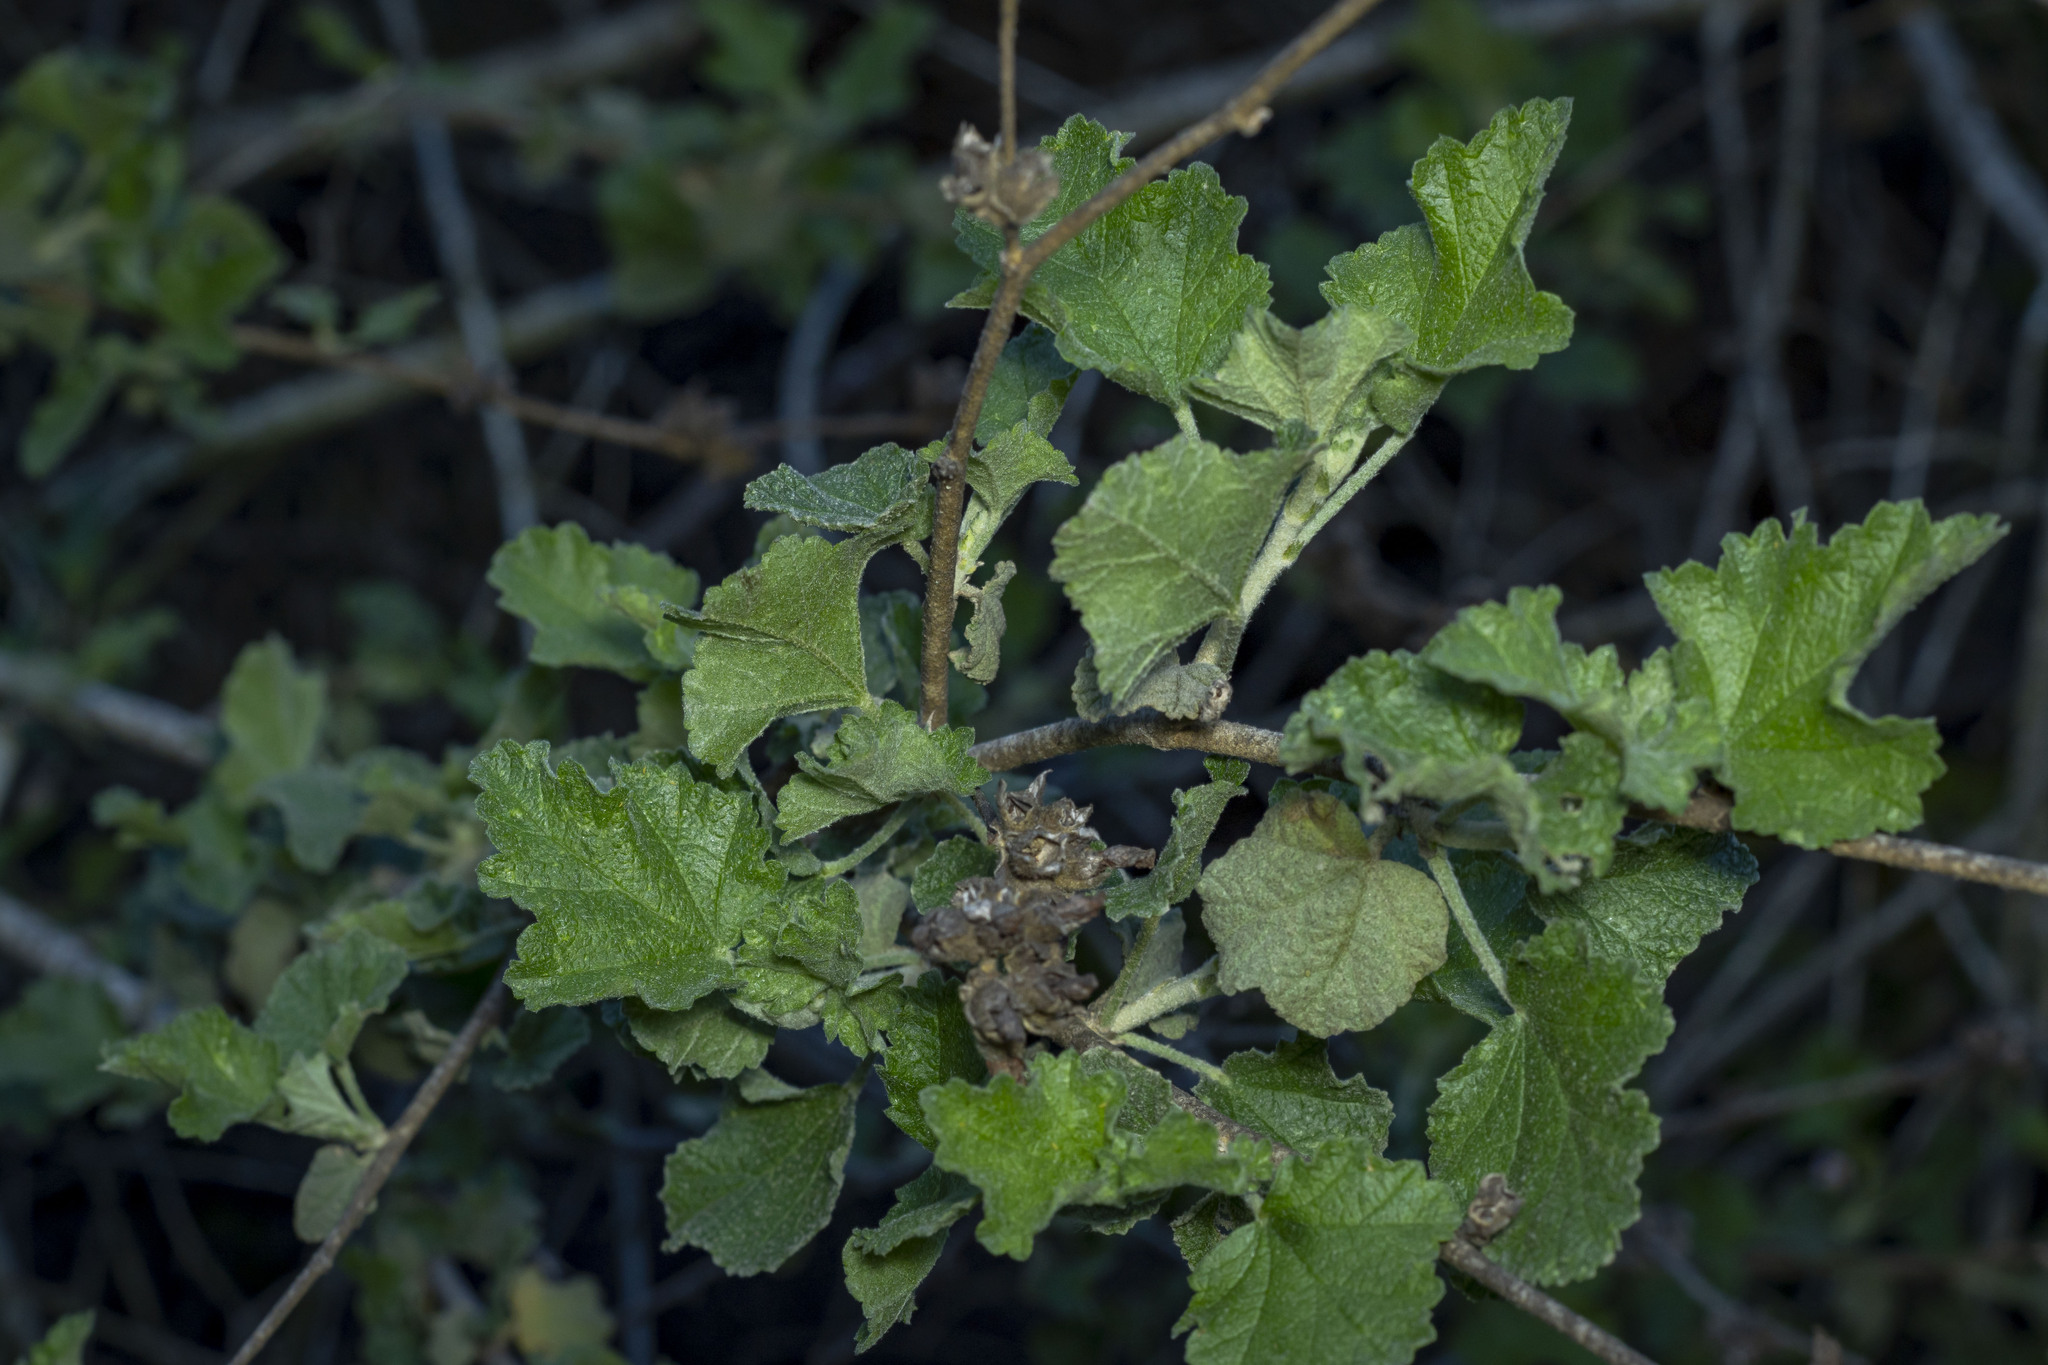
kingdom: Plantae
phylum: Tracheophyta
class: Magnoliopsida
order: Malvales
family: Malvaceae
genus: Malacothamnus
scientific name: Malacothamnus fasciculatus
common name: Sant cruz island bush-mallow
